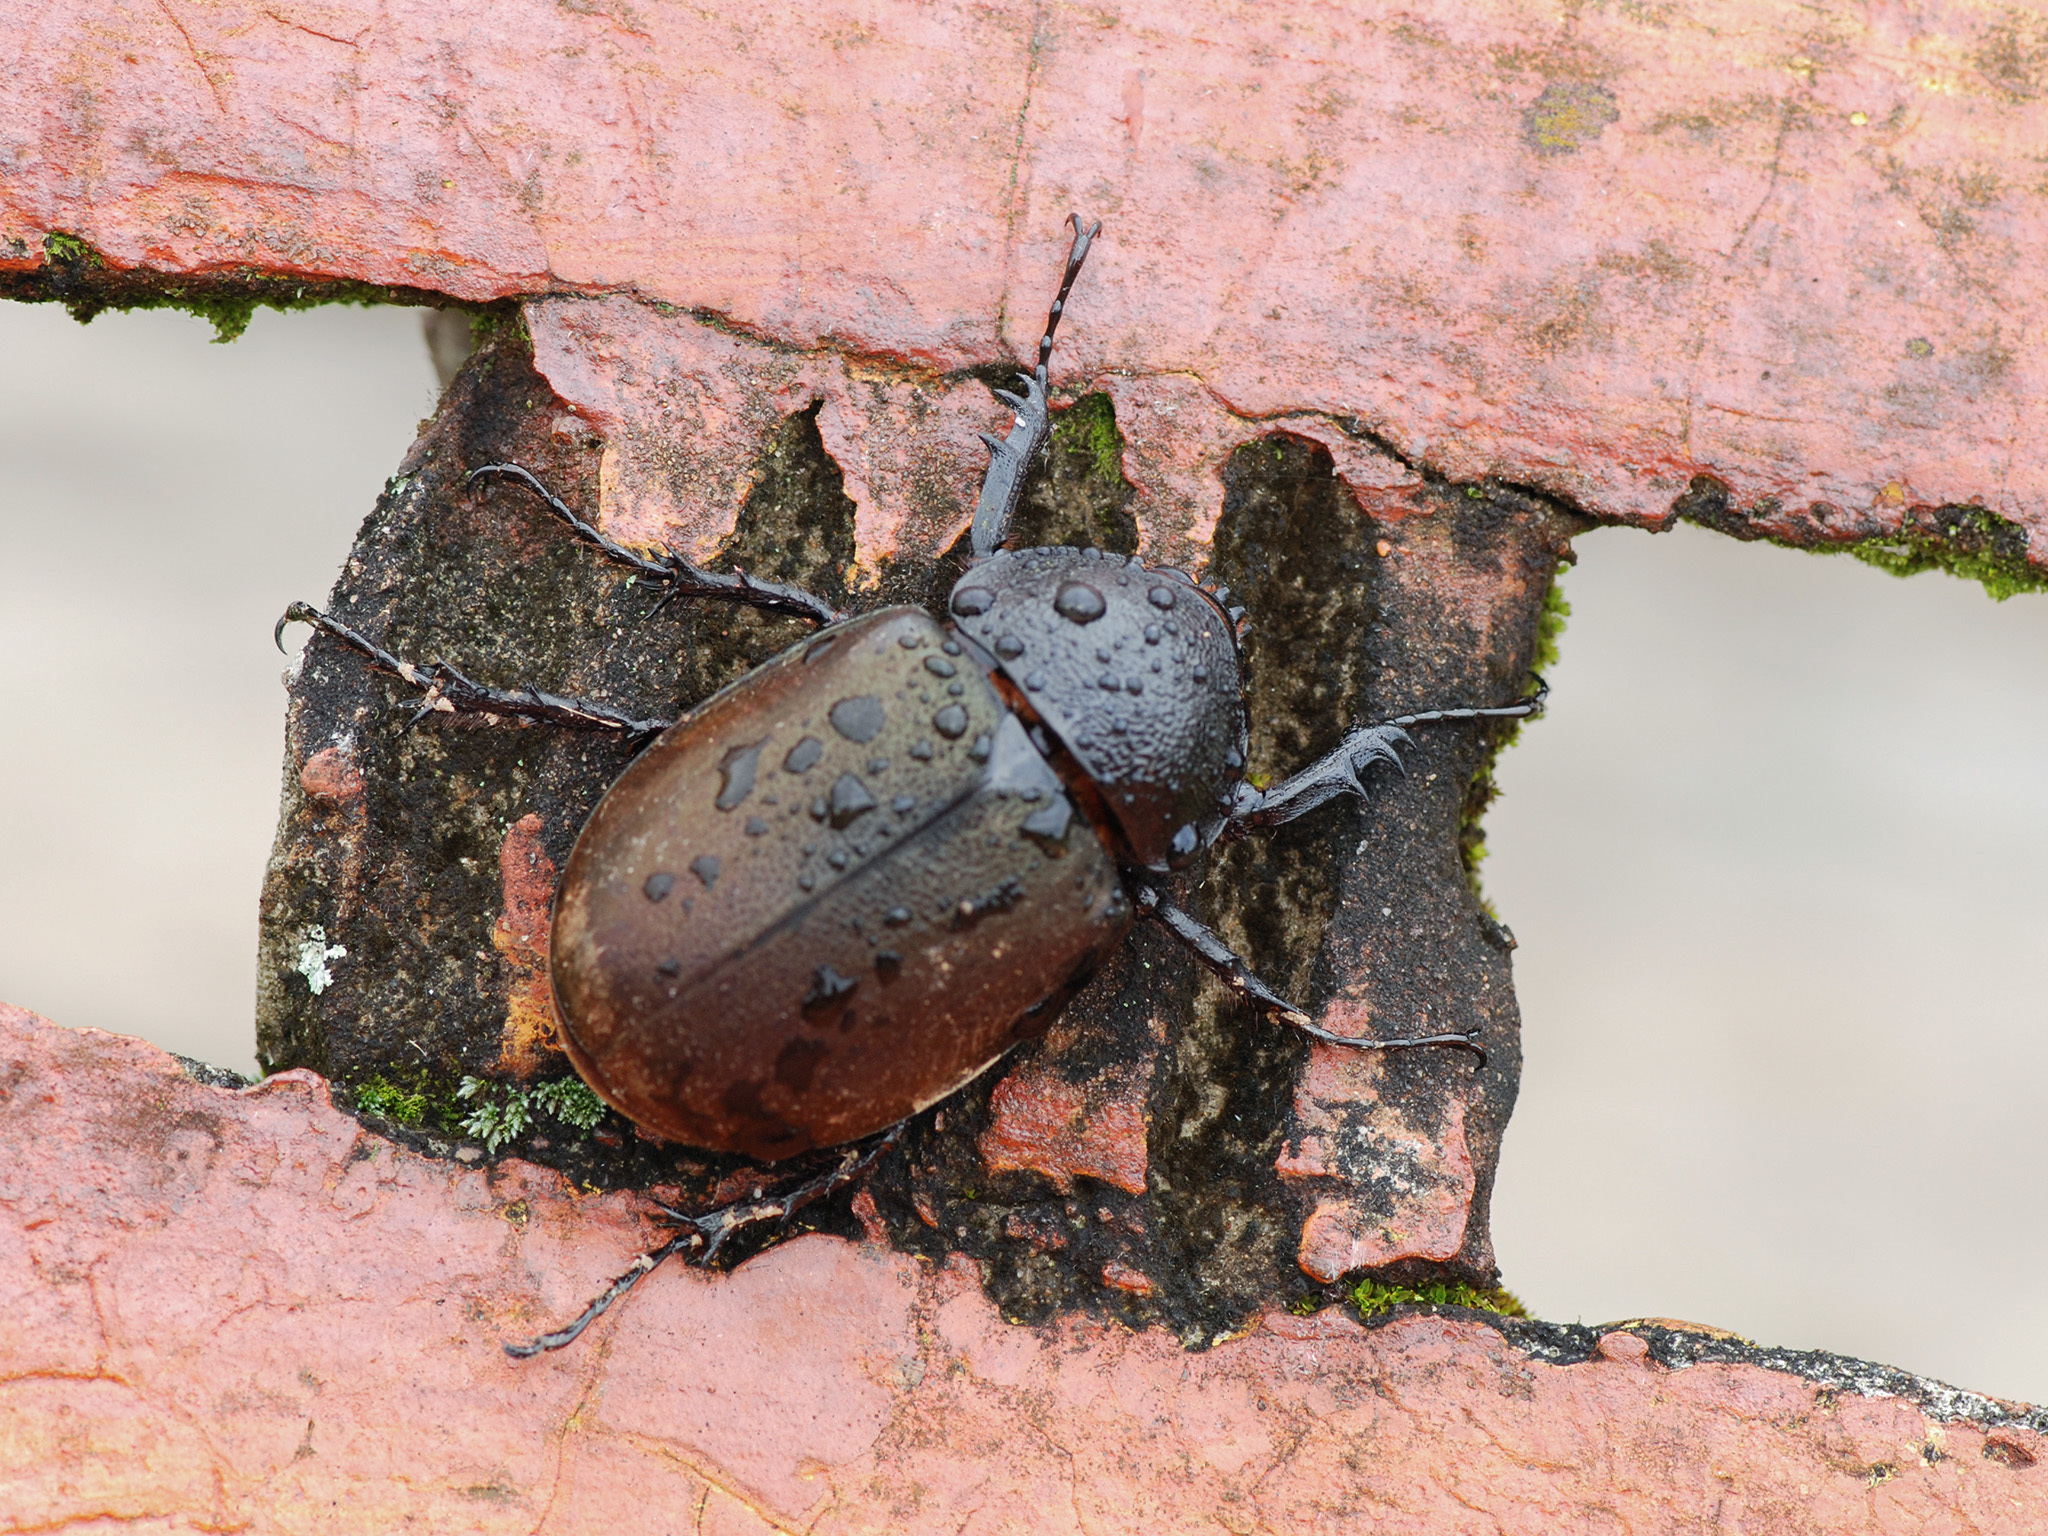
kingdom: Animalia
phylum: Arthropoda
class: Insecta
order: Coleoptera
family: Scarabaeidae
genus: Chalcosoma
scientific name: Chalcosoma chiron
